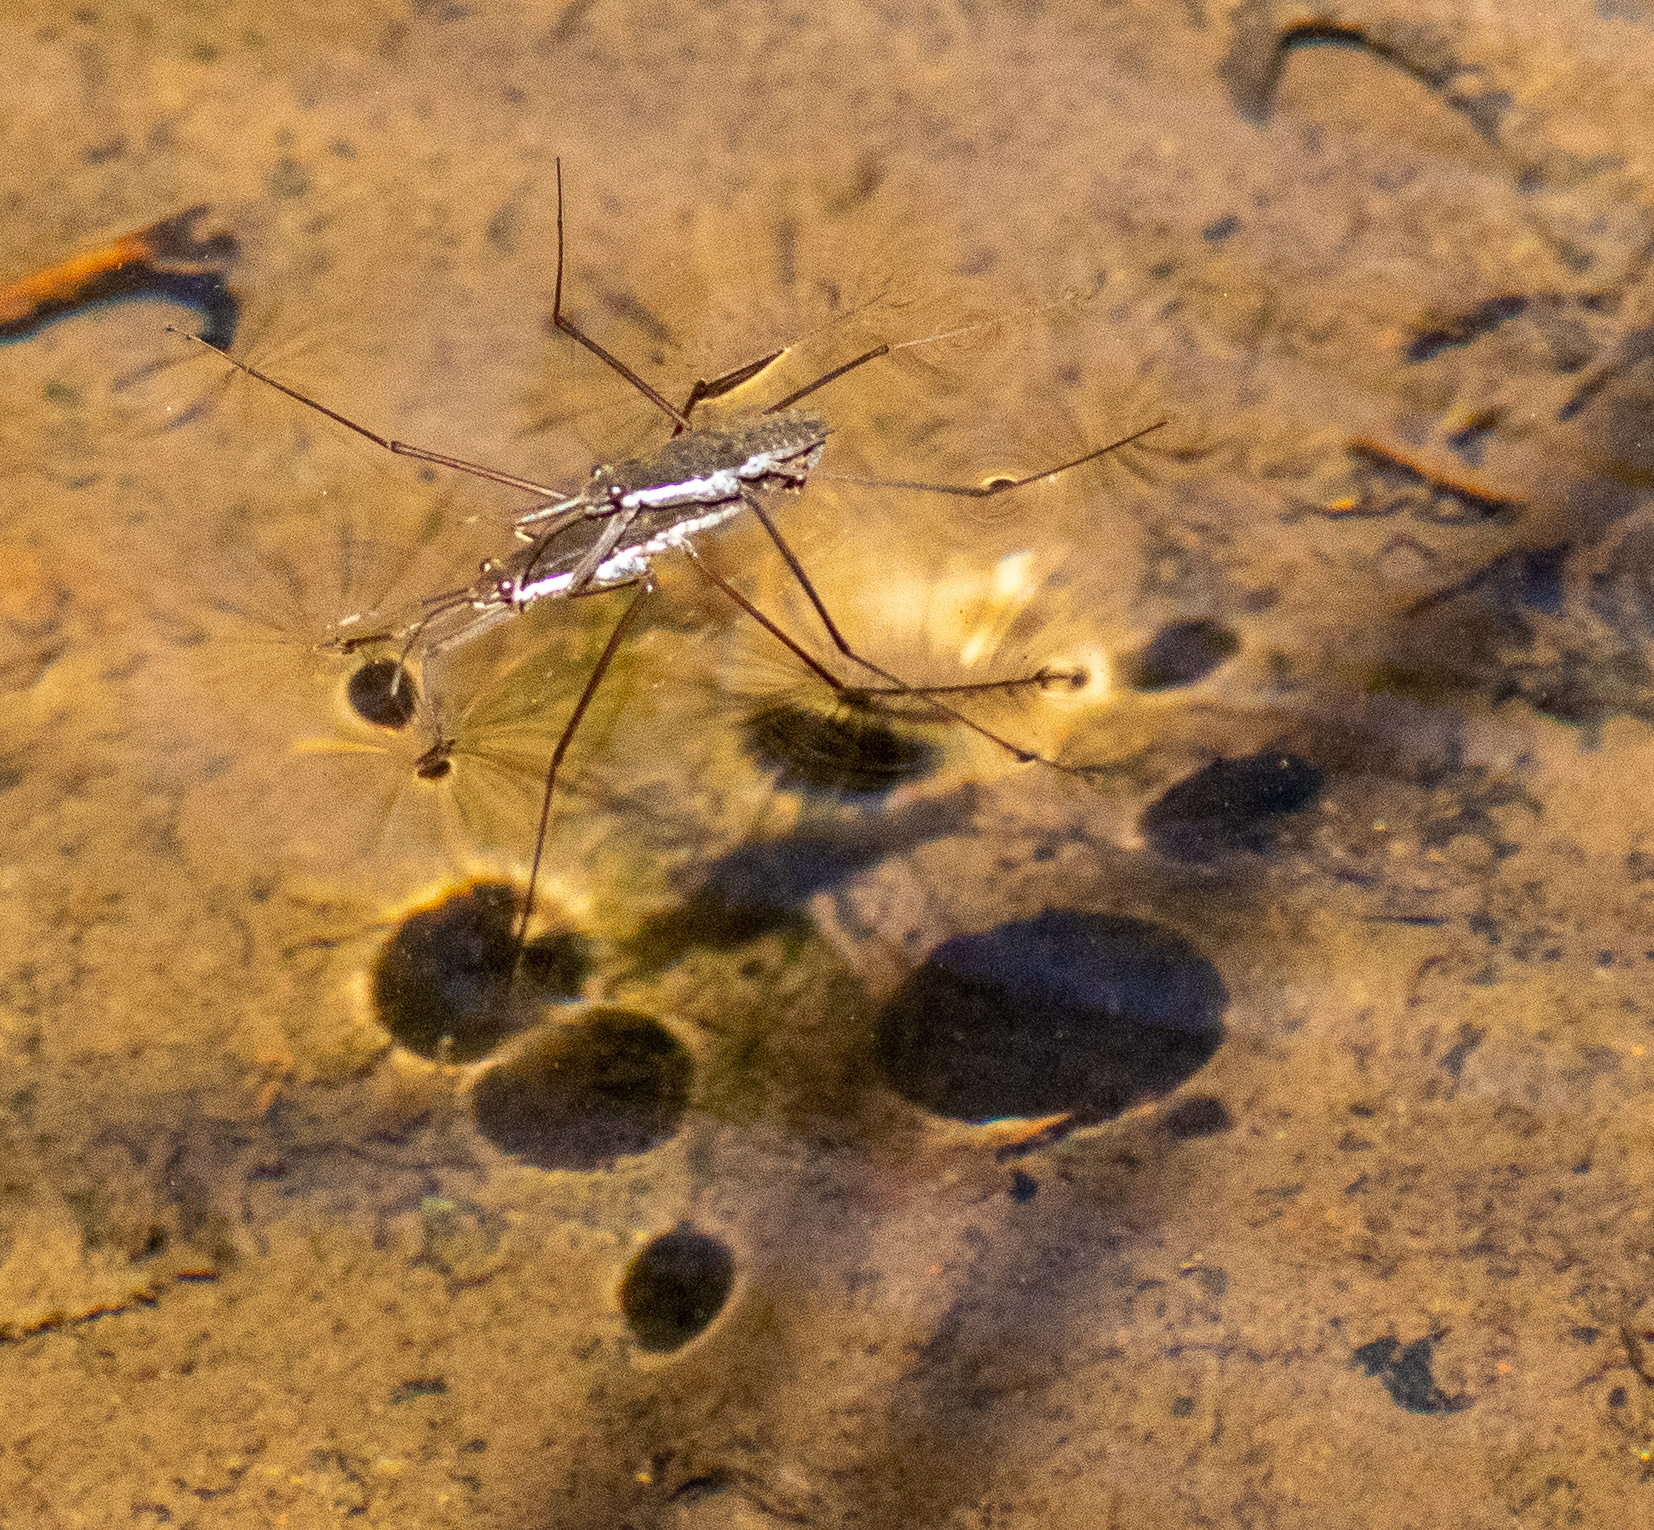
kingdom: Animalia
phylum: Arthropoda
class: Insecta
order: Hemiptera
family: Gerridae
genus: Aquarius
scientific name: Aquarius remigis
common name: Common water strider
